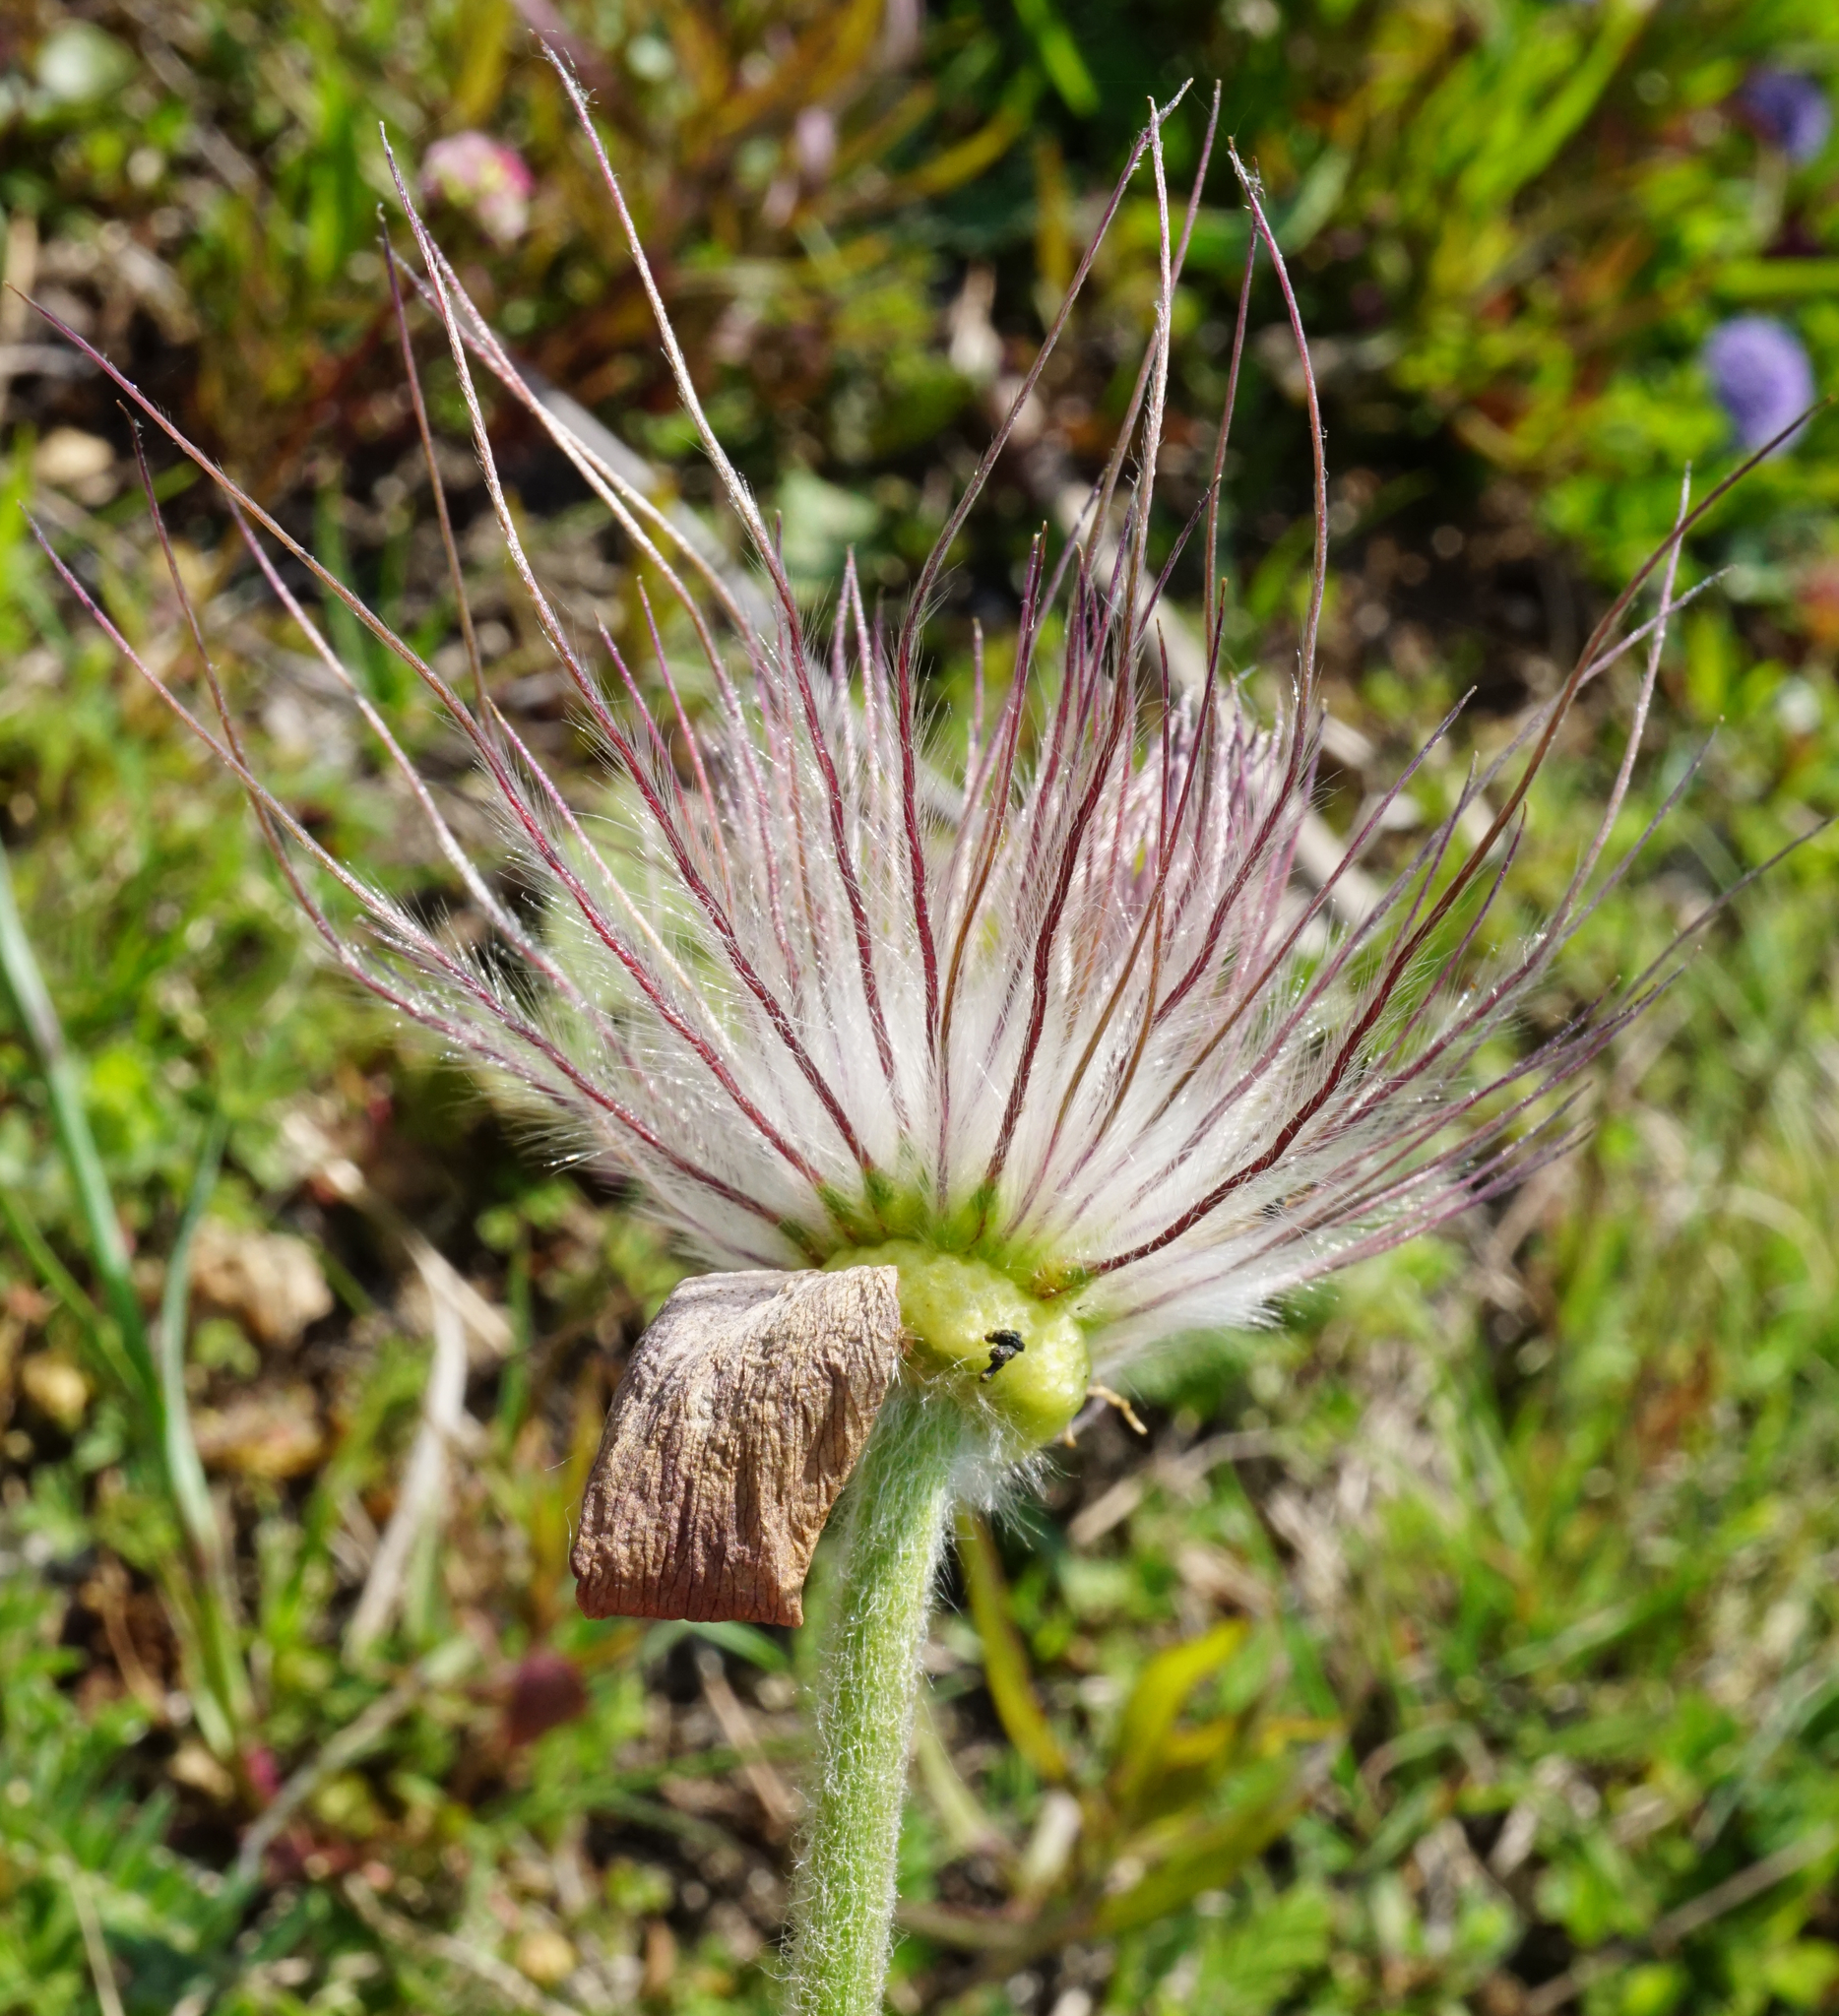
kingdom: Plantae
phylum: Tracheophyta
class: Magnoliopsida
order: Ranunculales
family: Ranunculaceae
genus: Pulsatilla
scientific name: Pulsatilla pratensis
